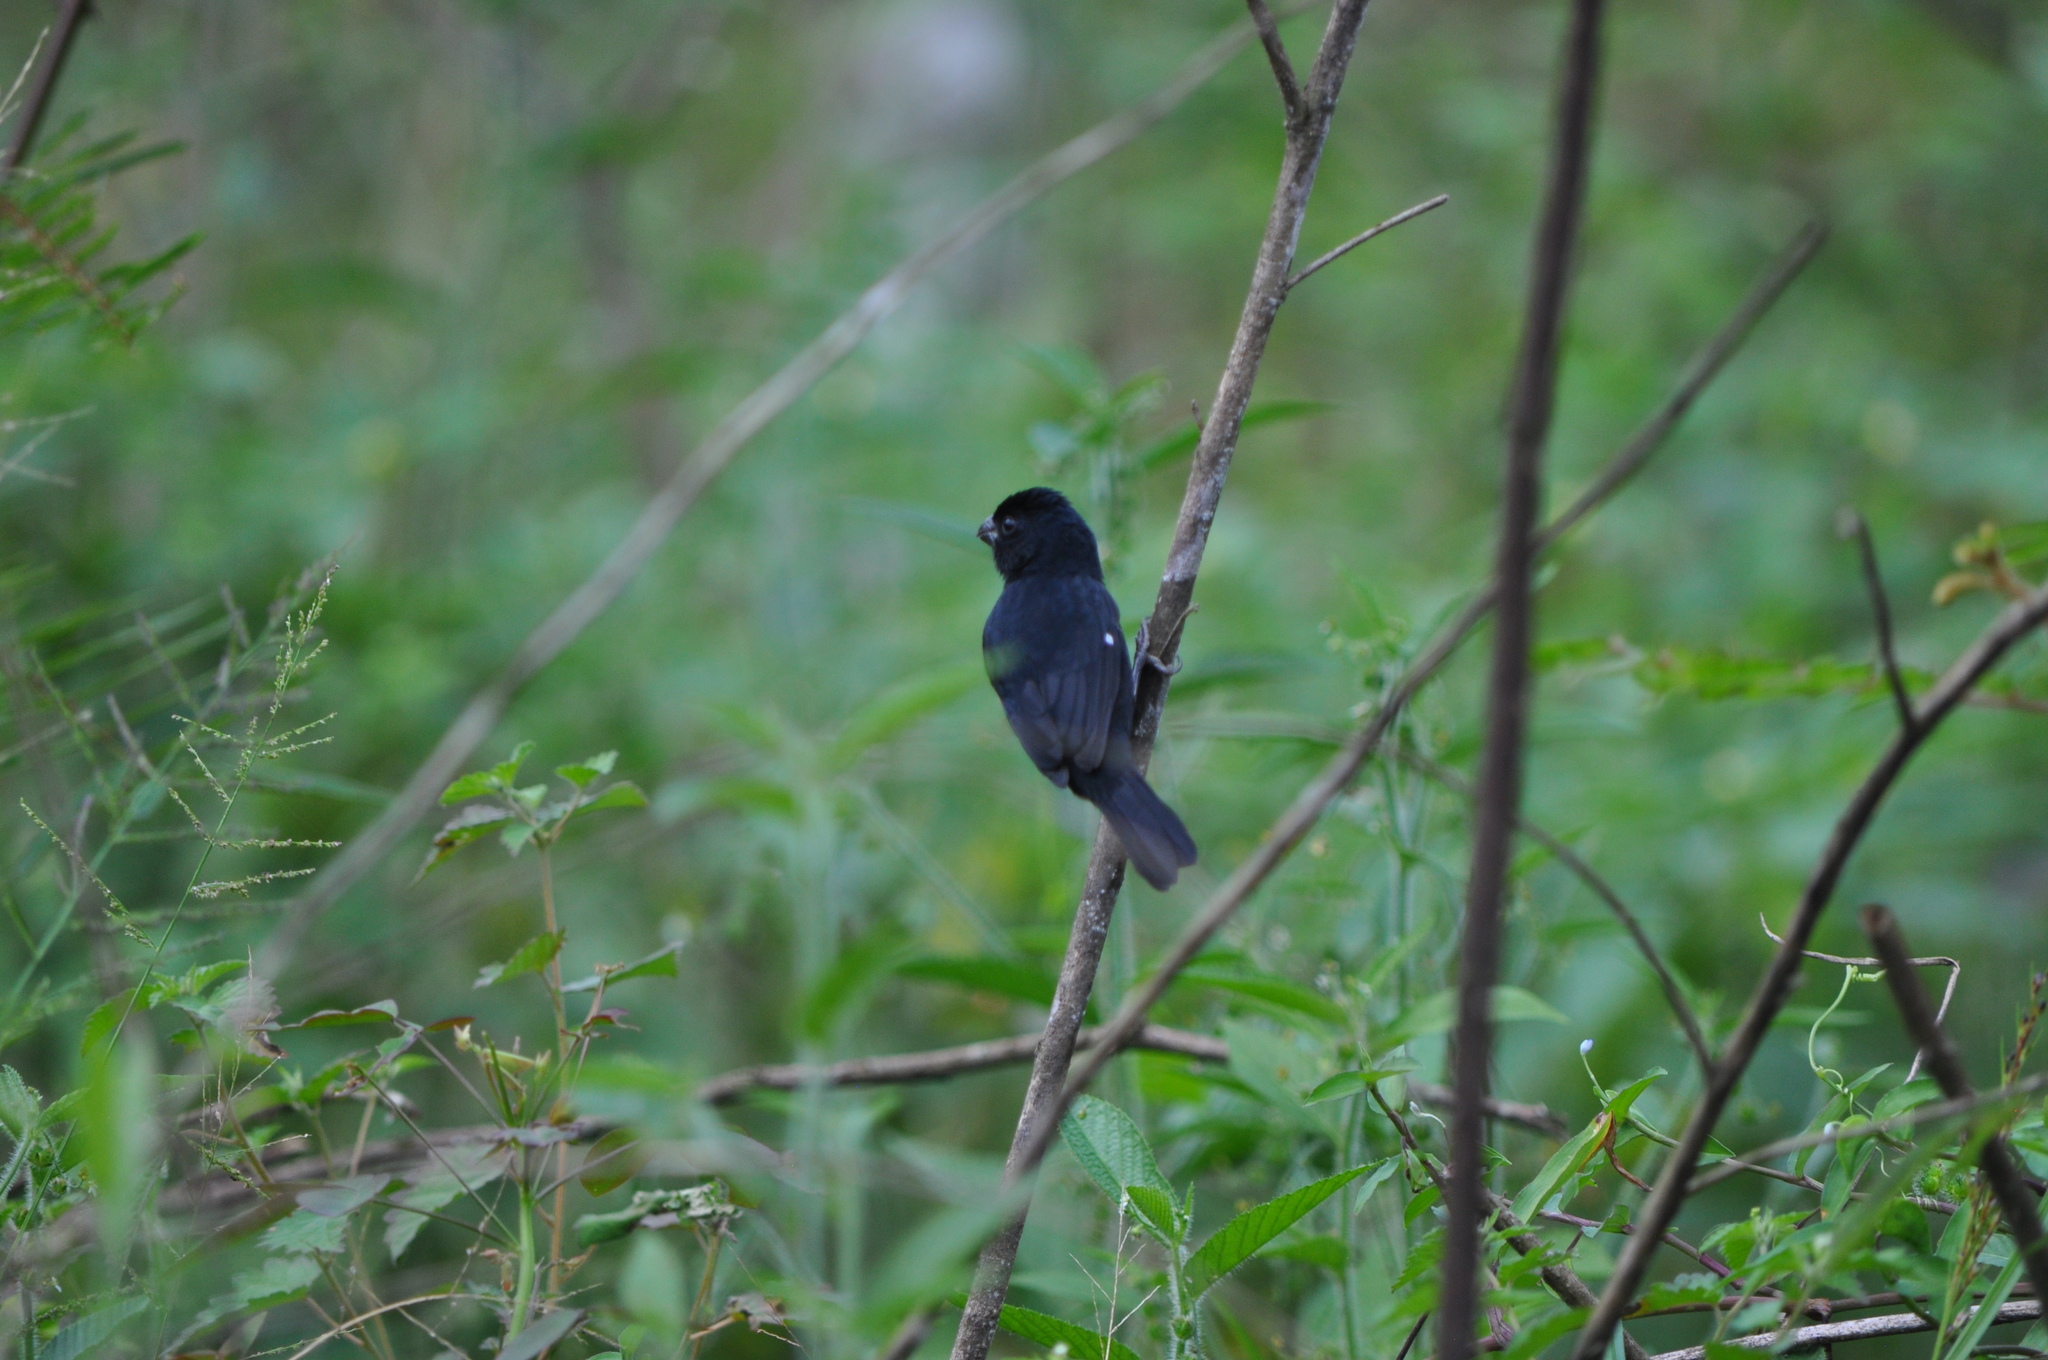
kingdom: Animalia
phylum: Chordata
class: Aves
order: Passeriformes
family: Thraupidae
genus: Sporophila
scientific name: Sporophila corvina
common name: Variable seedeater
